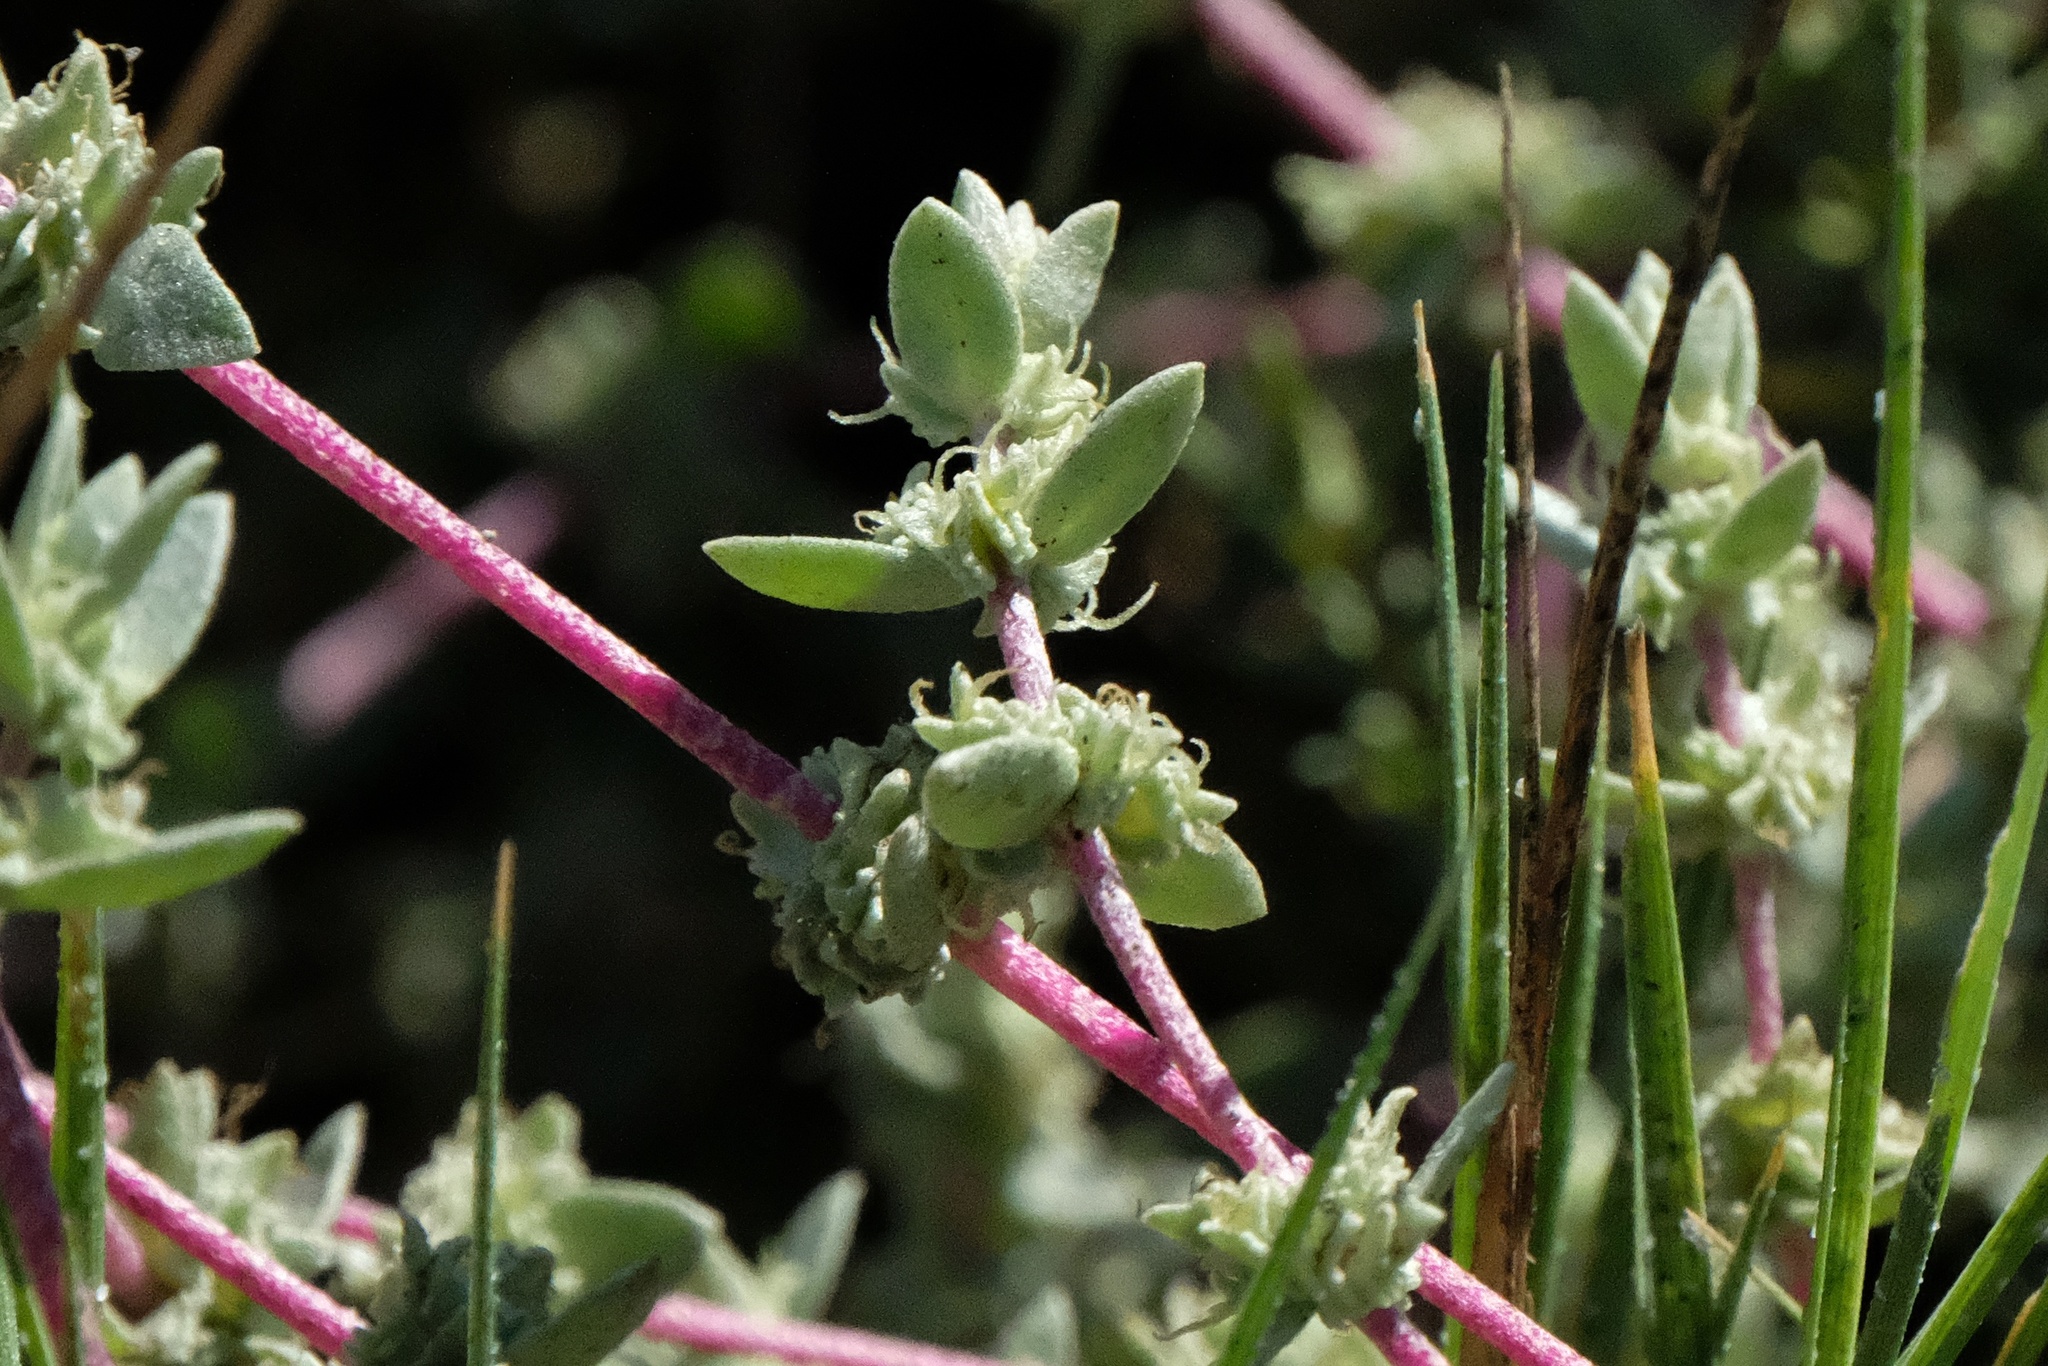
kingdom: Plantae
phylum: Tracheophyta
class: Magnoliopsida
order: Caryophyllales
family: Amaranthaceae
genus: Atriplex
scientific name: Atriplex watsonii
